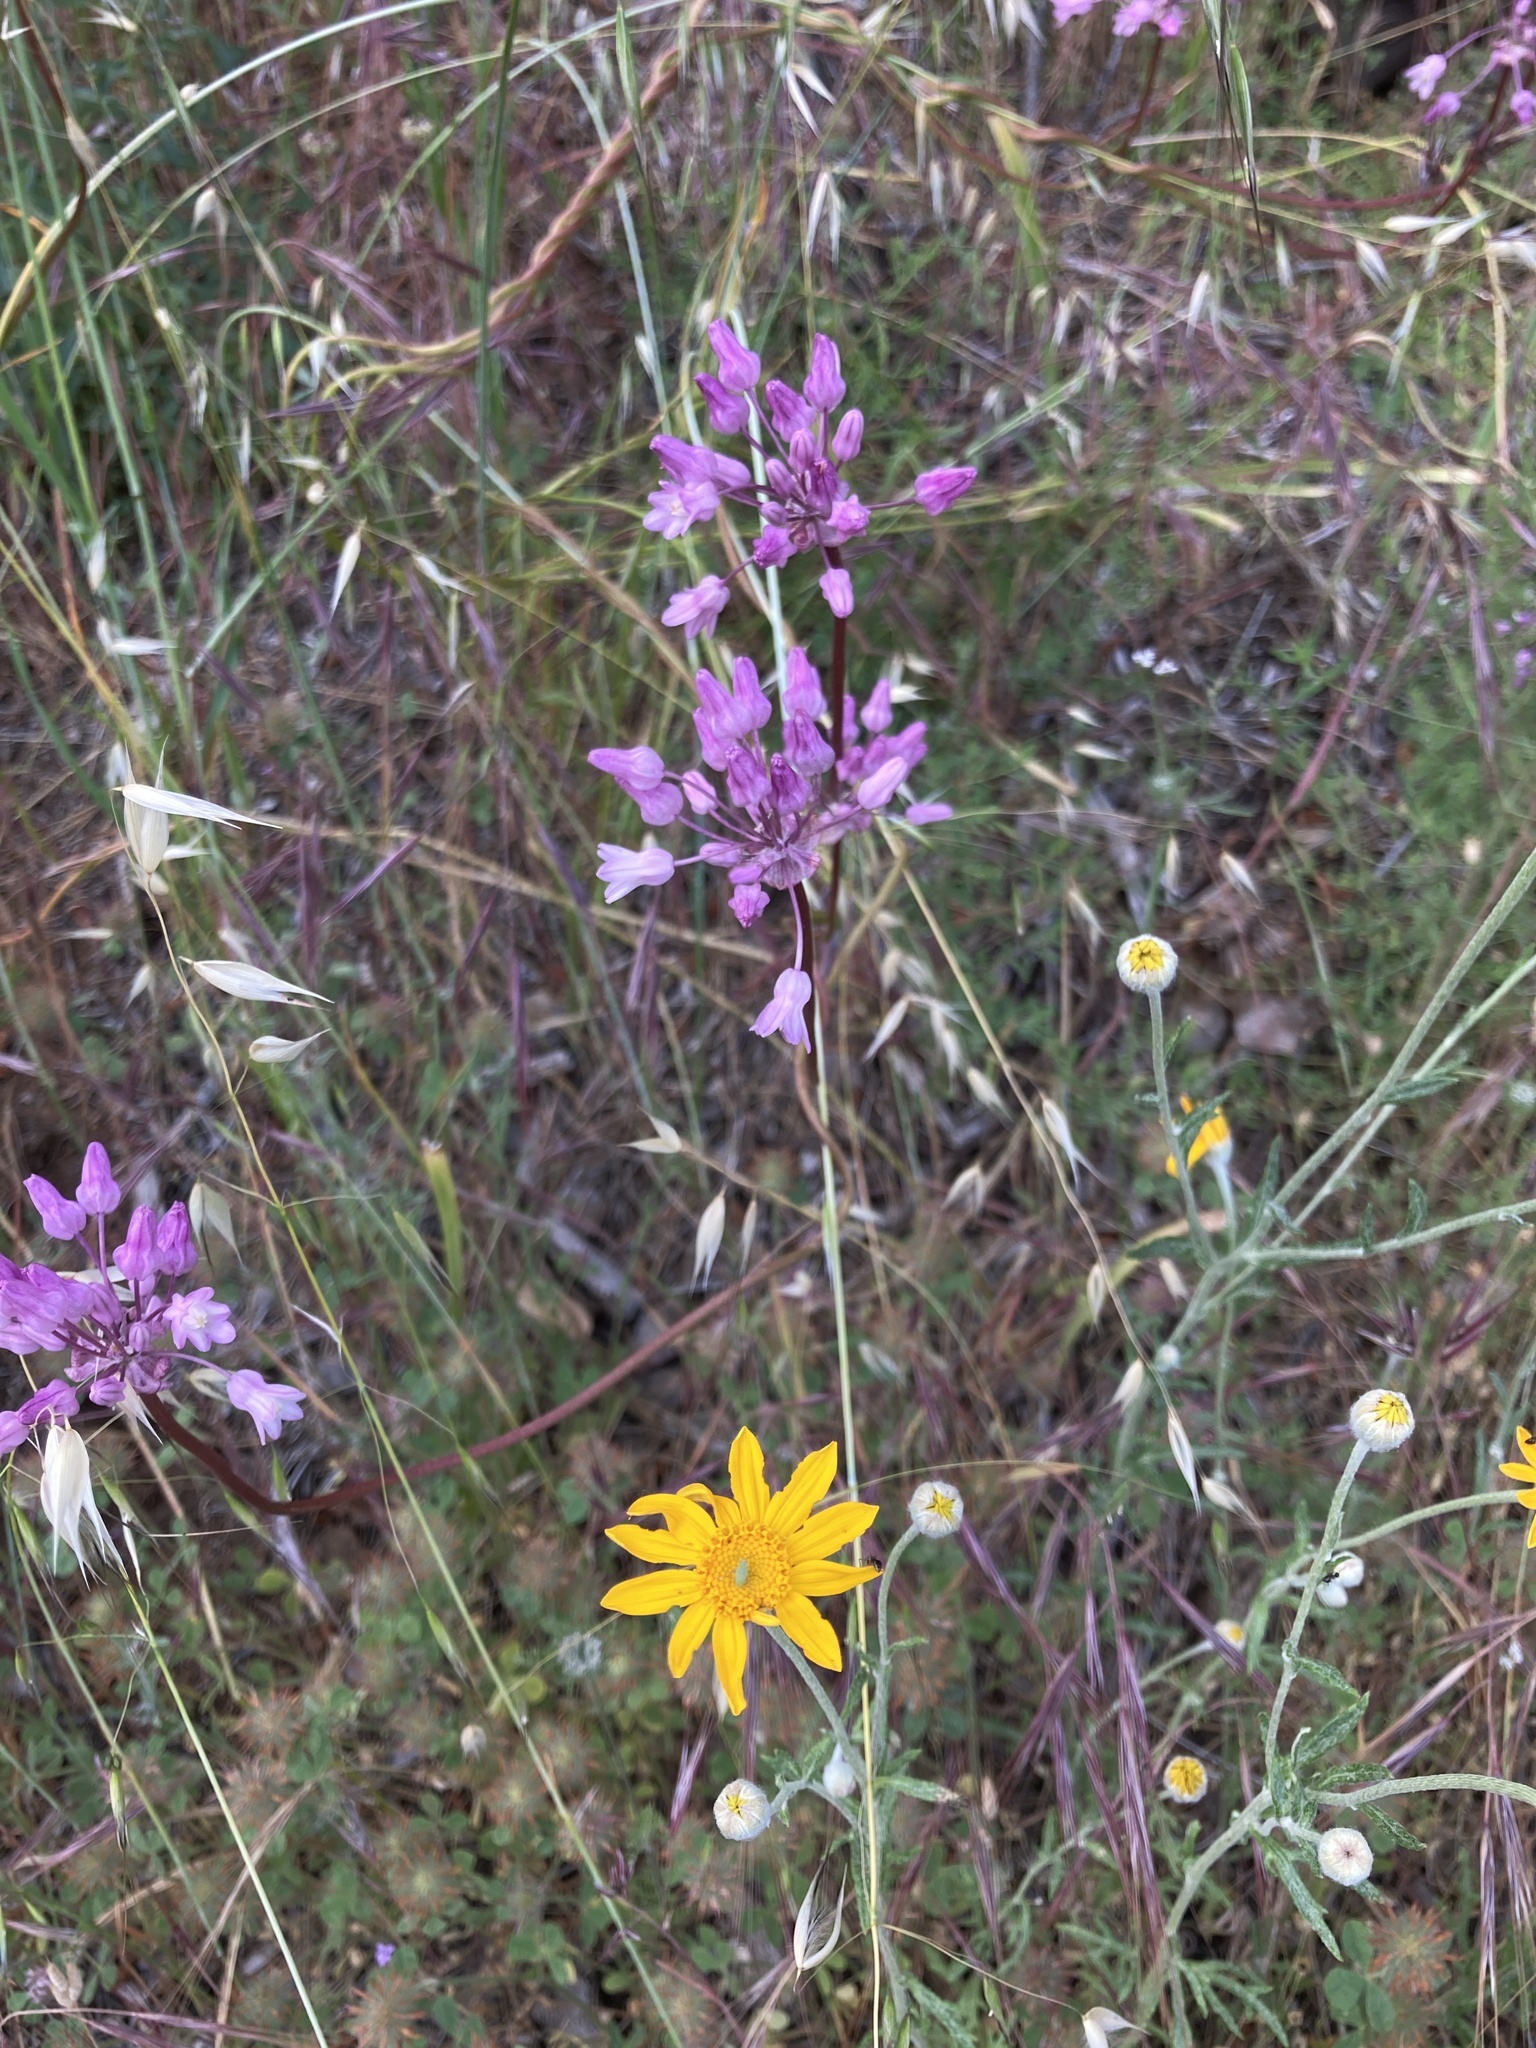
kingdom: Plantae
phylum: Tracheophyta
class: Liliopsida
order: Asparagales
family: Asparagaceae
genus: Dichelostemma
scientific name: Dichelostemma volubile
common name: Trining brodiaea
